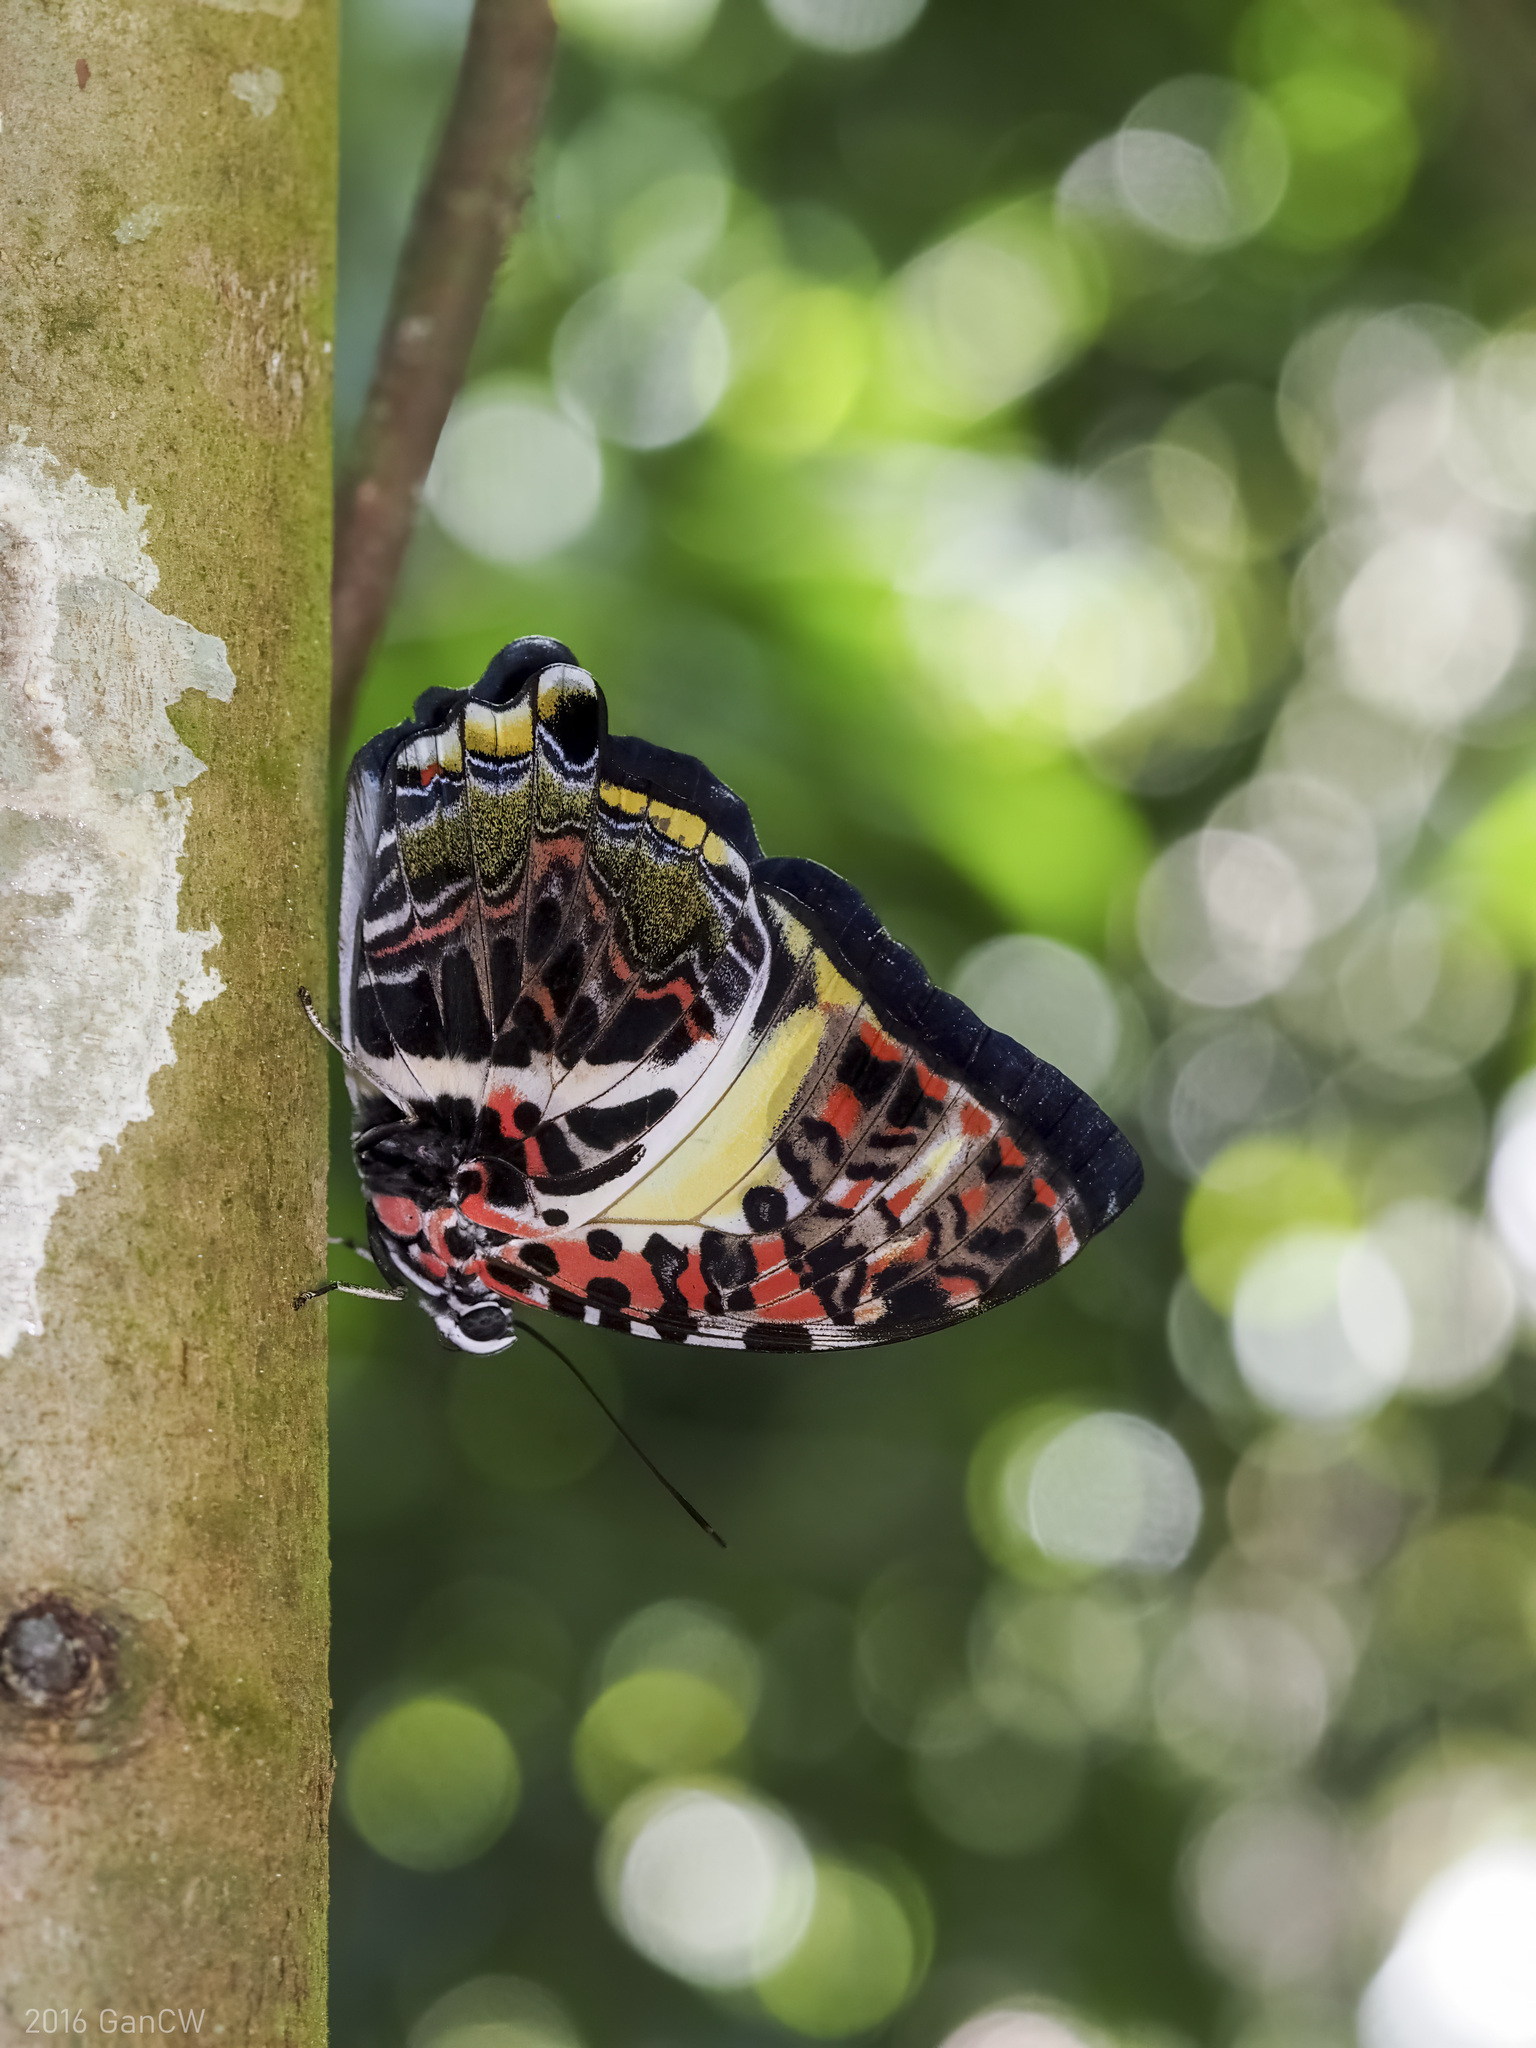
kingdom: Animalia
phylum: Arthropoda
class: Insecta
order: Lepidoptera
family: Nymphalidae
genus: Prothoe
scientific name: Prothoe Agatasa calydonia
